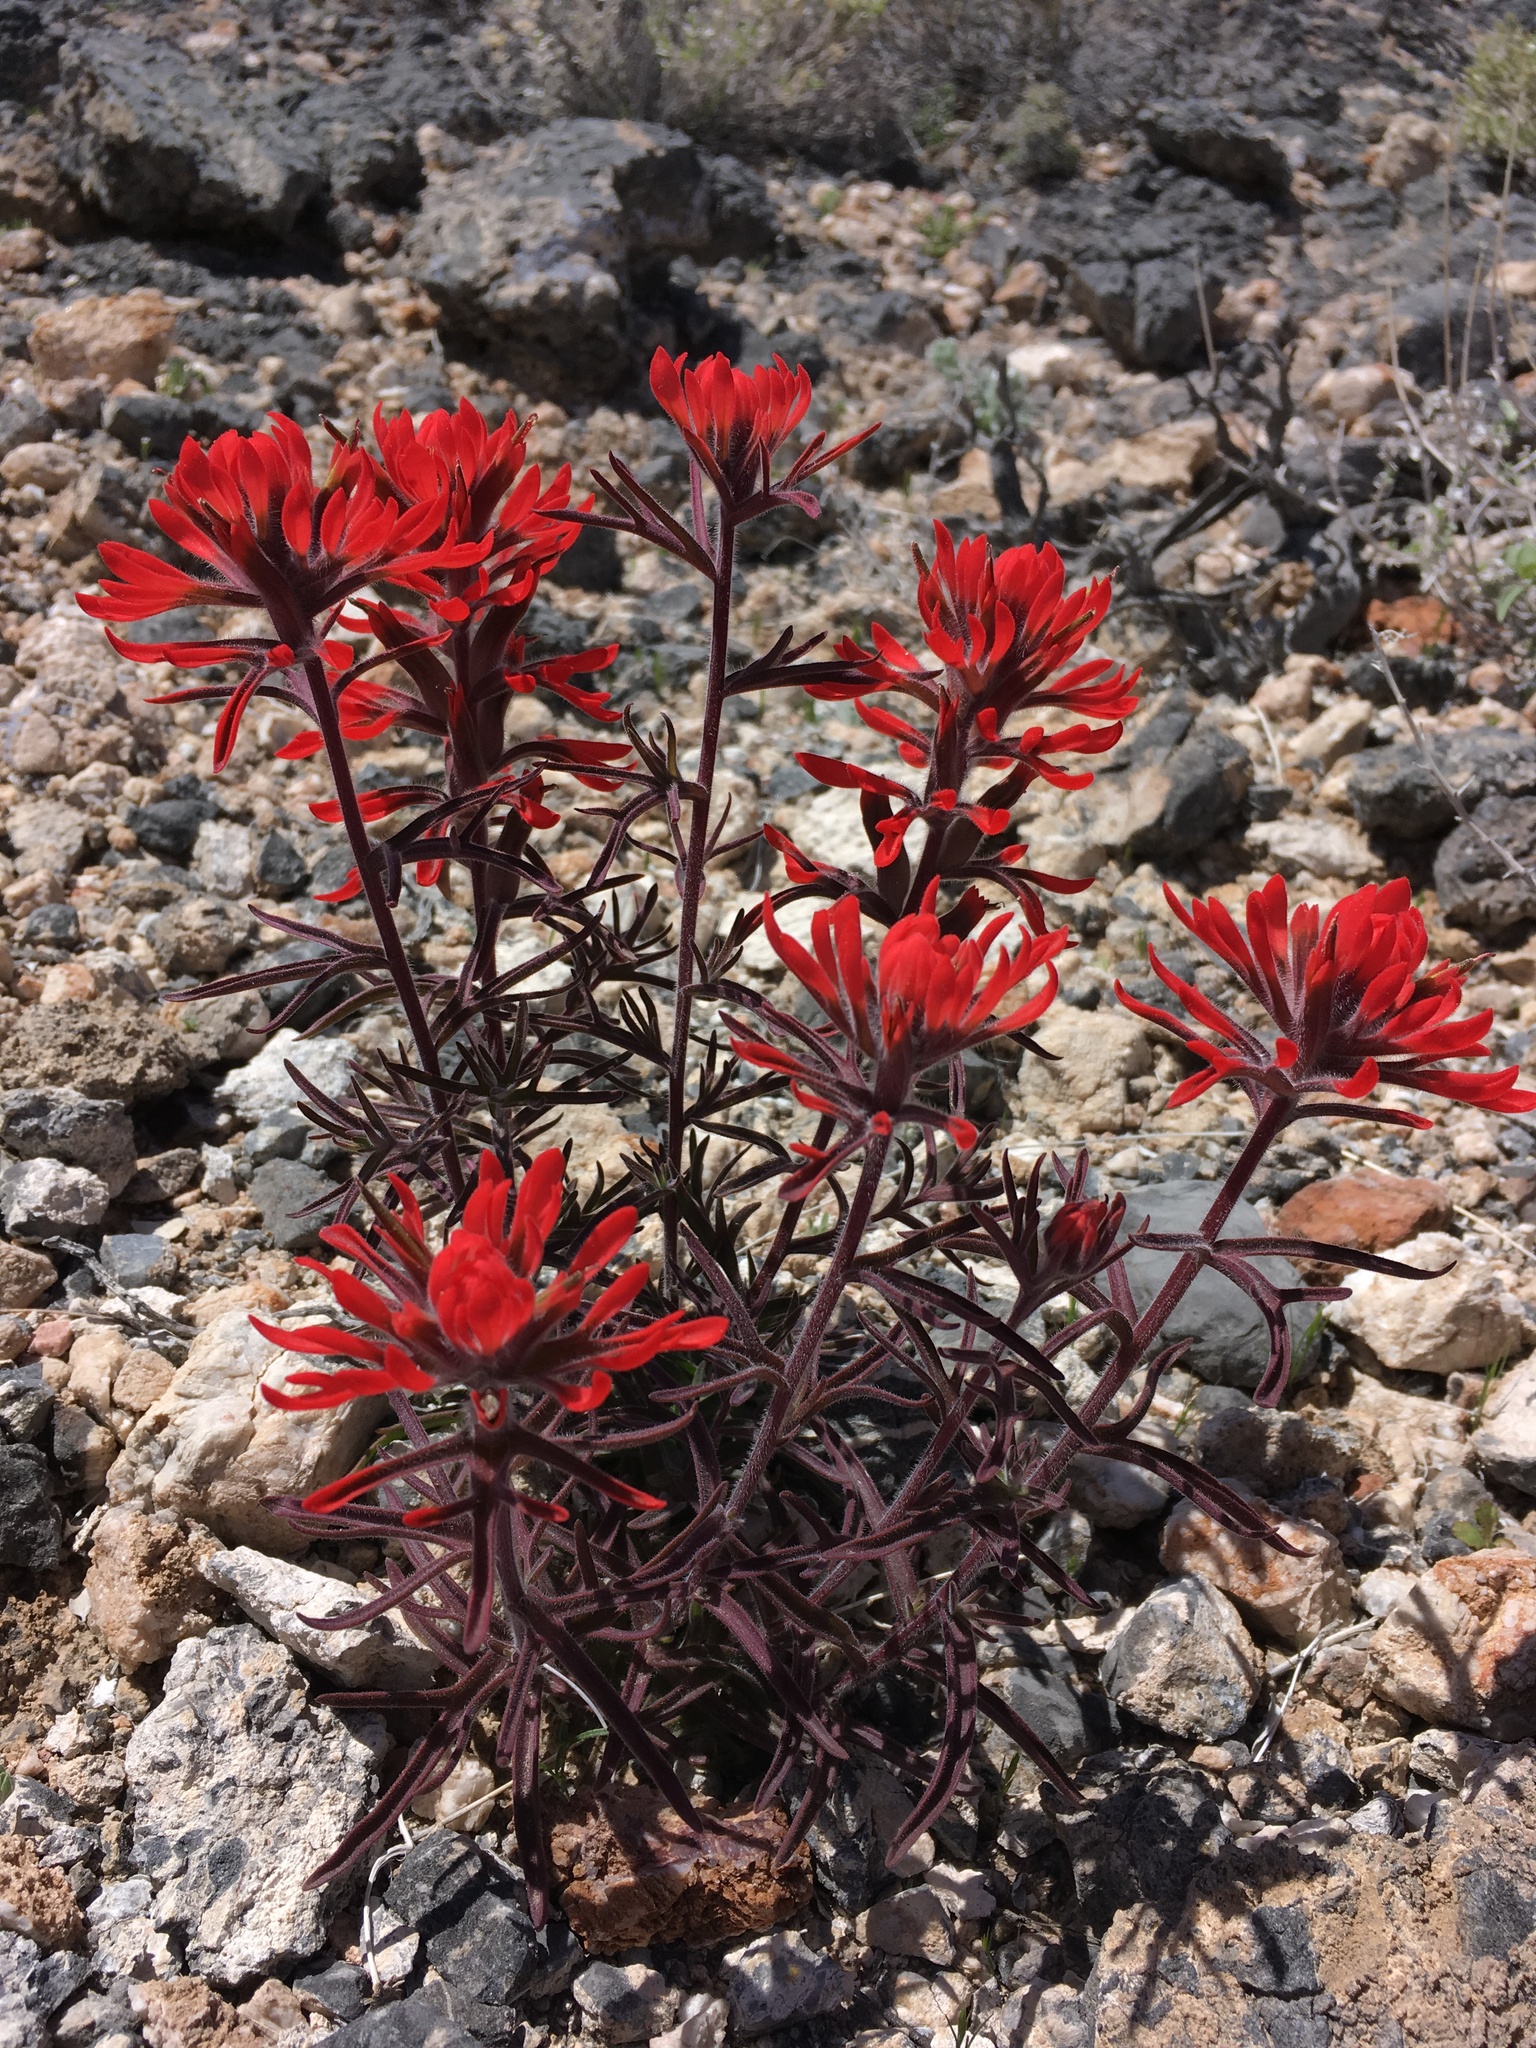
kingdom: Plantae
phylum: Tracheophyta
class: Magnoliopsida
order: Lamiales
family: Orobanchaceae
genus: Castilleja
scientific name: Castilleja chromosa
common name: Desert paintbrush
